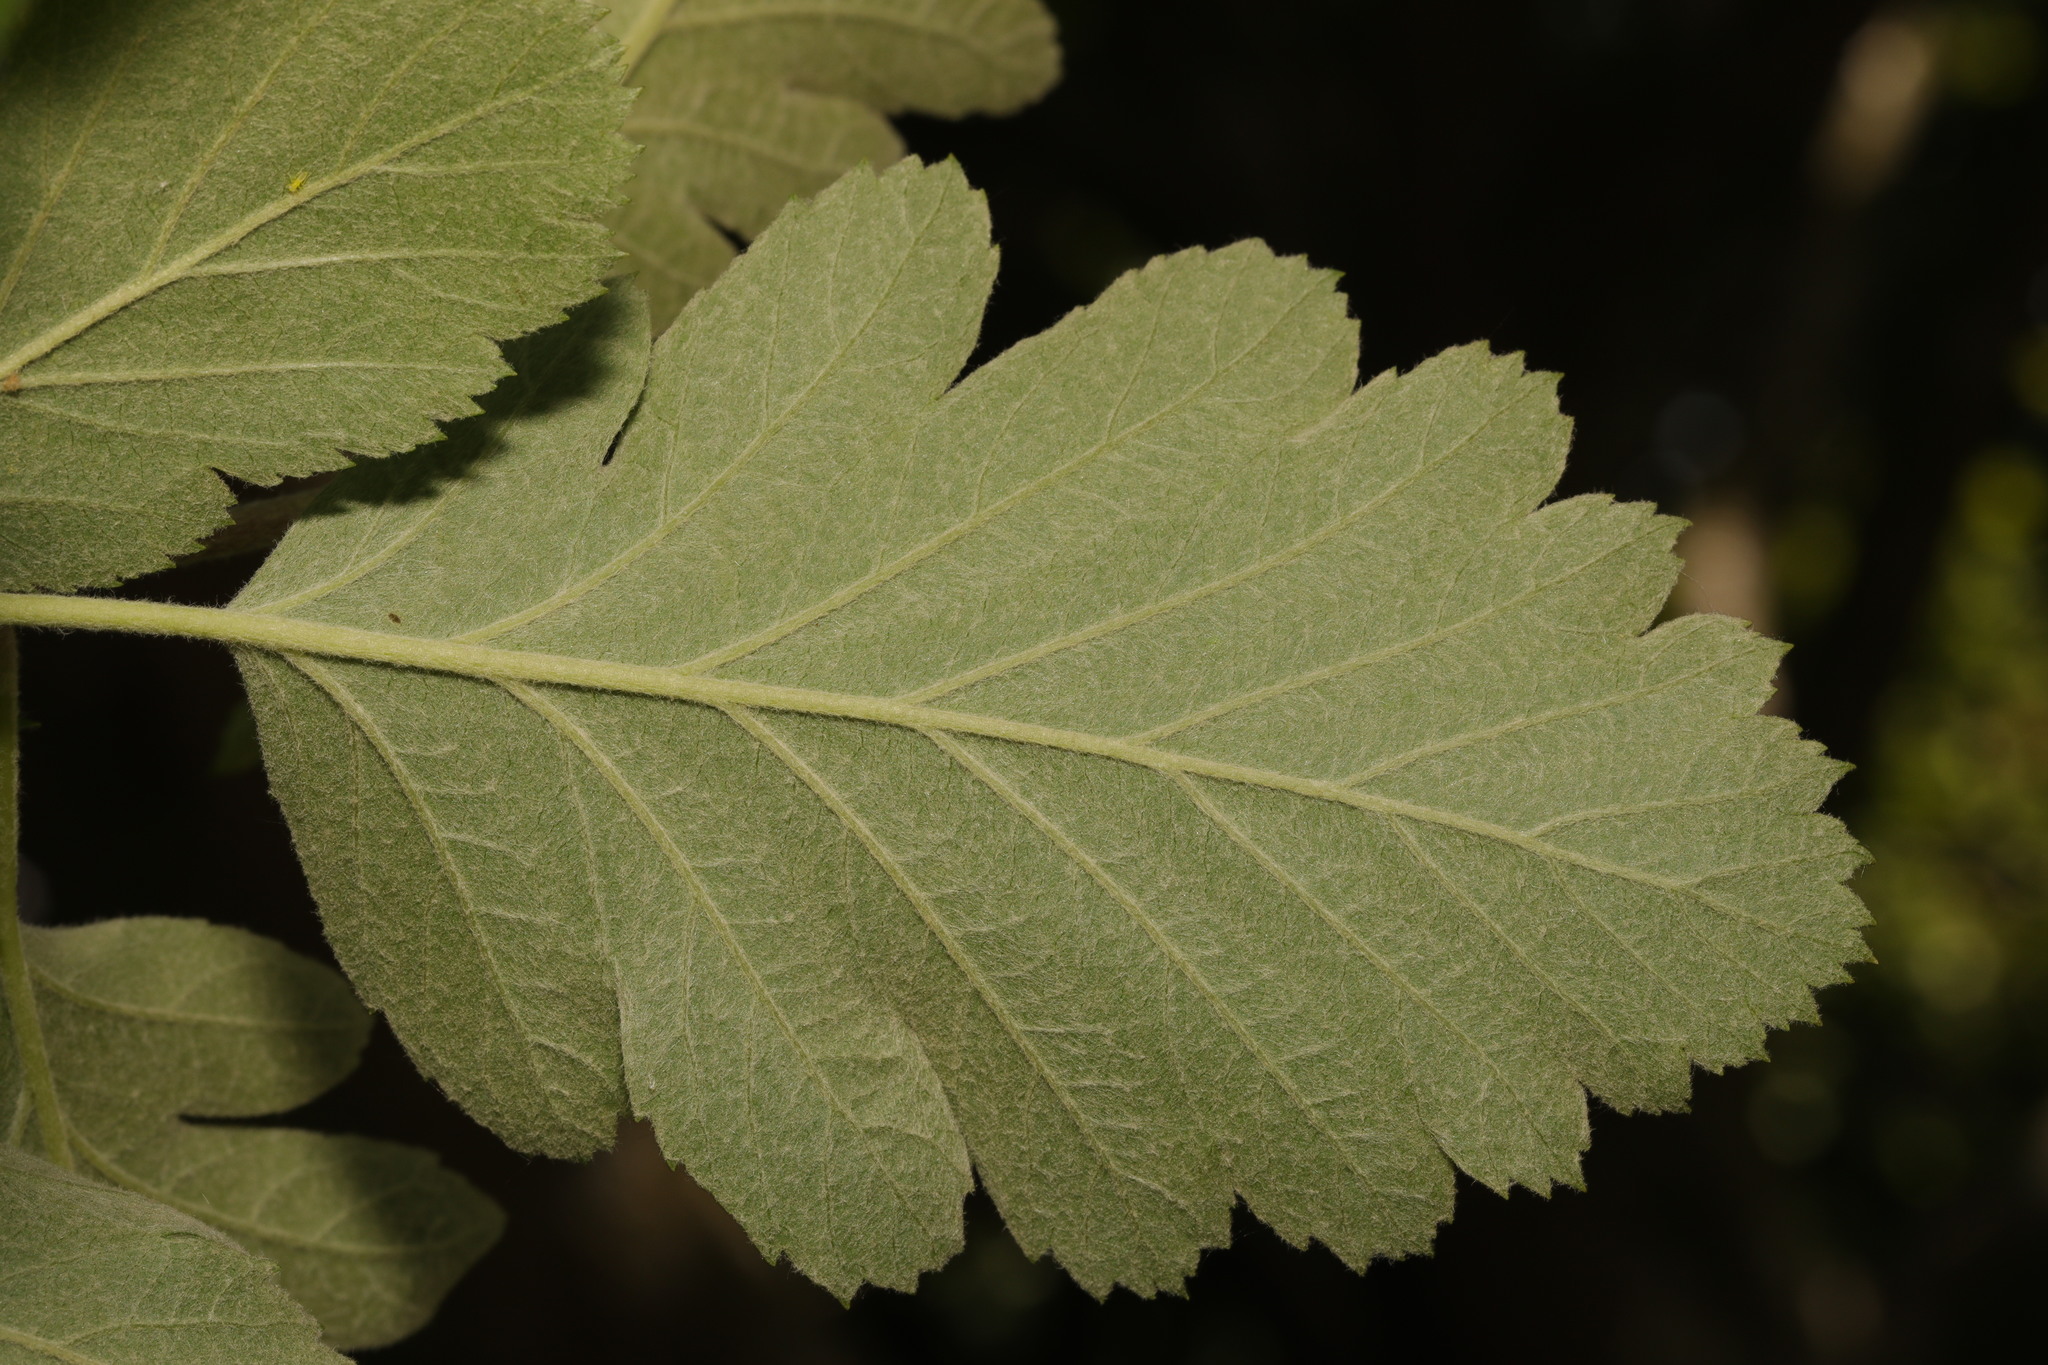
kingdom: Plantae
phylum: Tracheophyta
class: Magnoliopsida
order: Rosales
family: Rosaceae
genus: Scandosorbus
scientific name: Scandosorbus intermedia
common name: Swedish whitebeam
